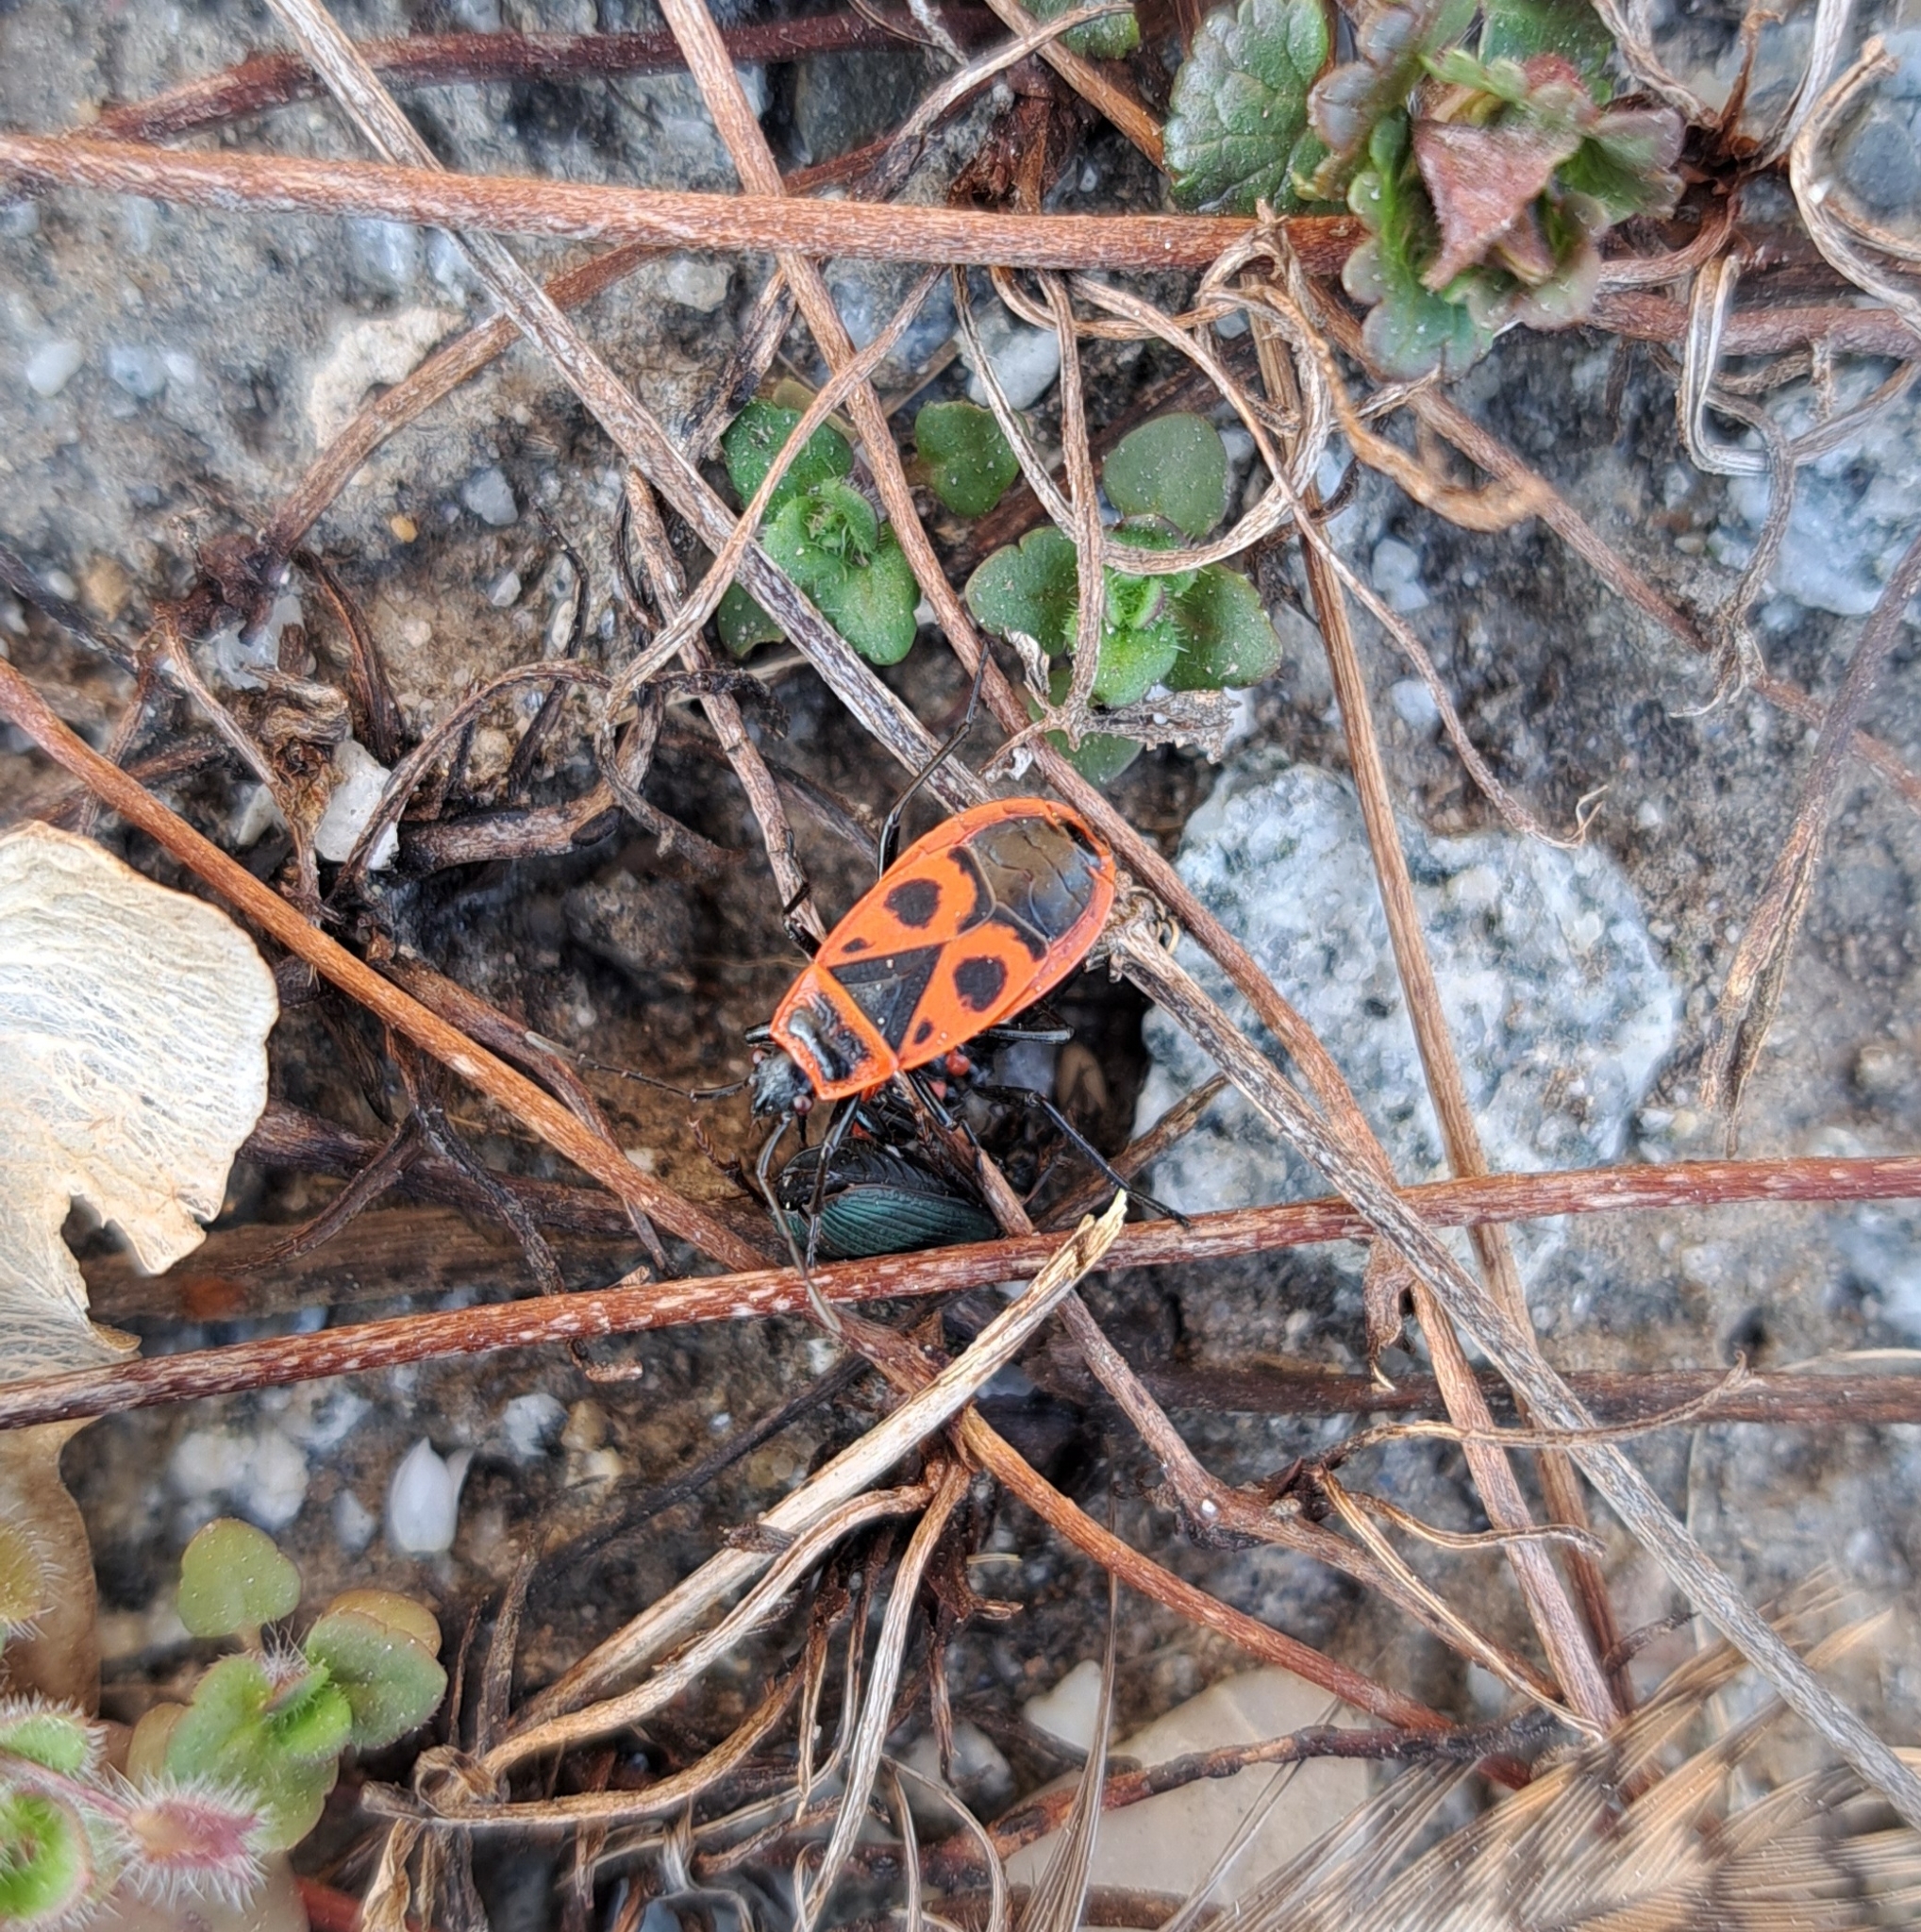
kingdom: Animalia
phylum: Arthropoda
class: Insecta
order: Hemiptera
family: Pyrrhocoridae
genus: Pyrrhocoris
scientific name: Pyrrhocoris apterus
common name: Firebug
